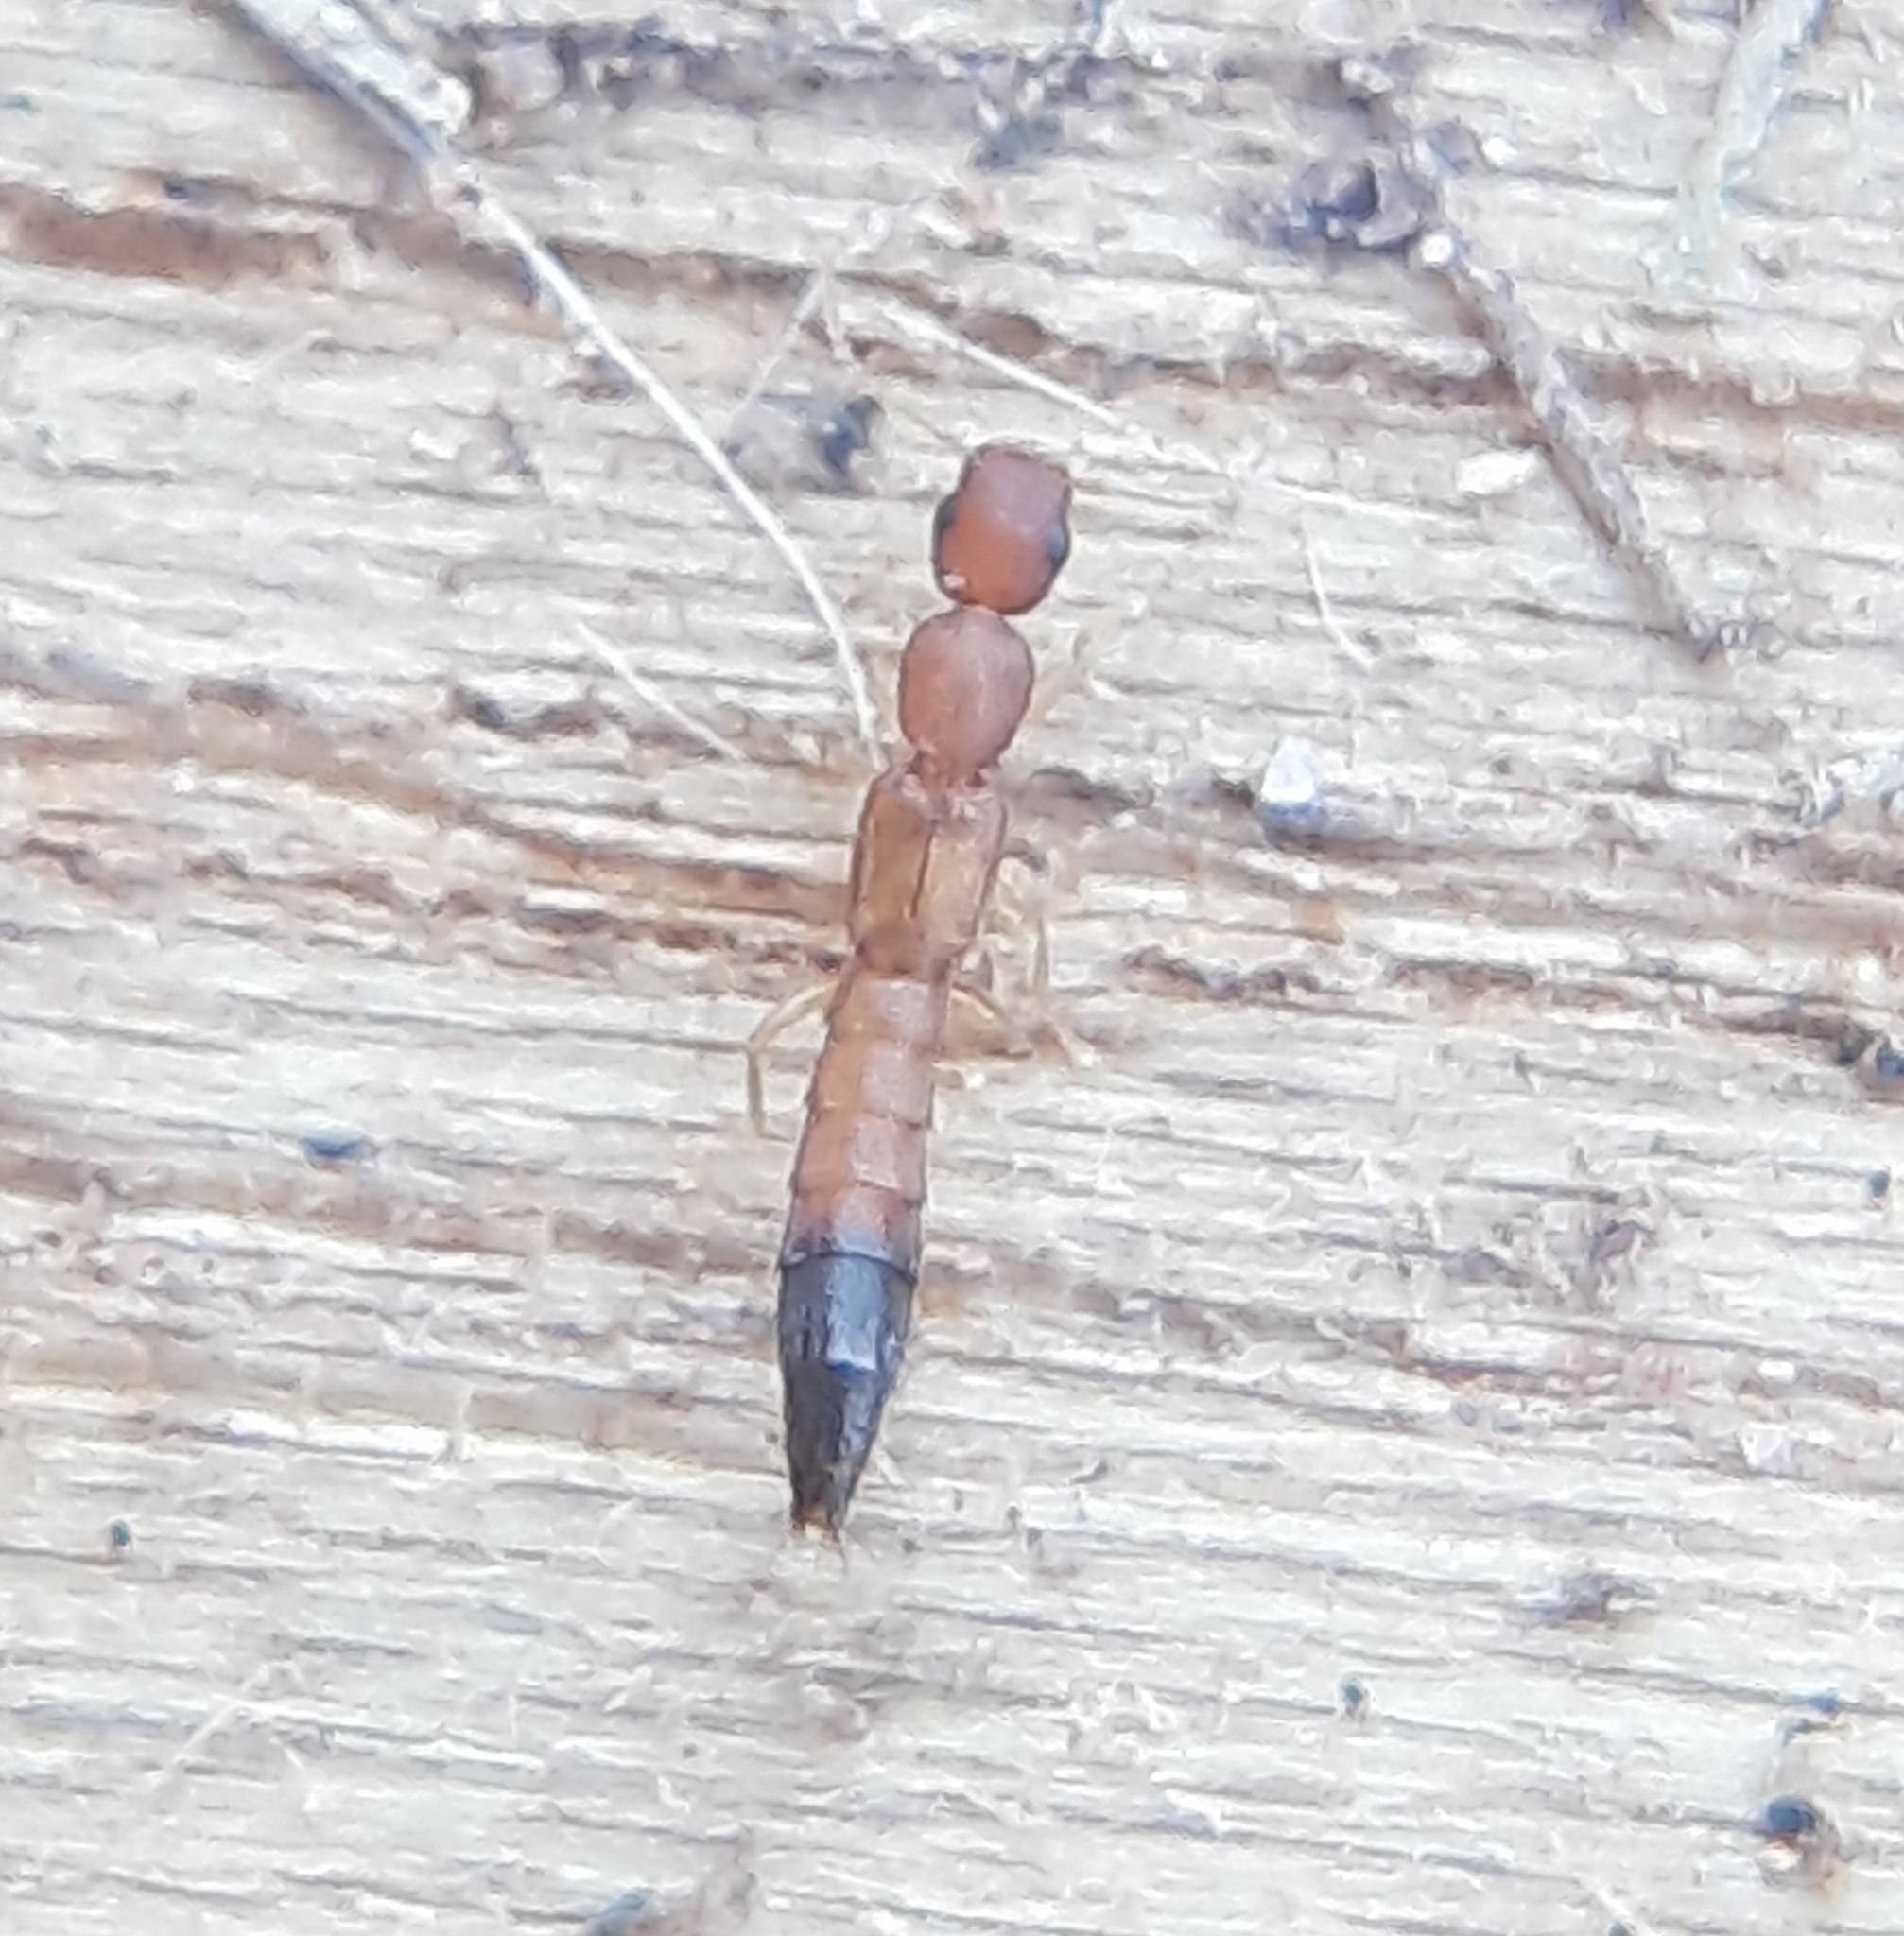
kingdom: Animalia
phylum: Arthropoda
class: Insecta
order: Coleoptera
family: Staphylinidae
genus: Astenus
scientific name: Astenus discopunctatus
